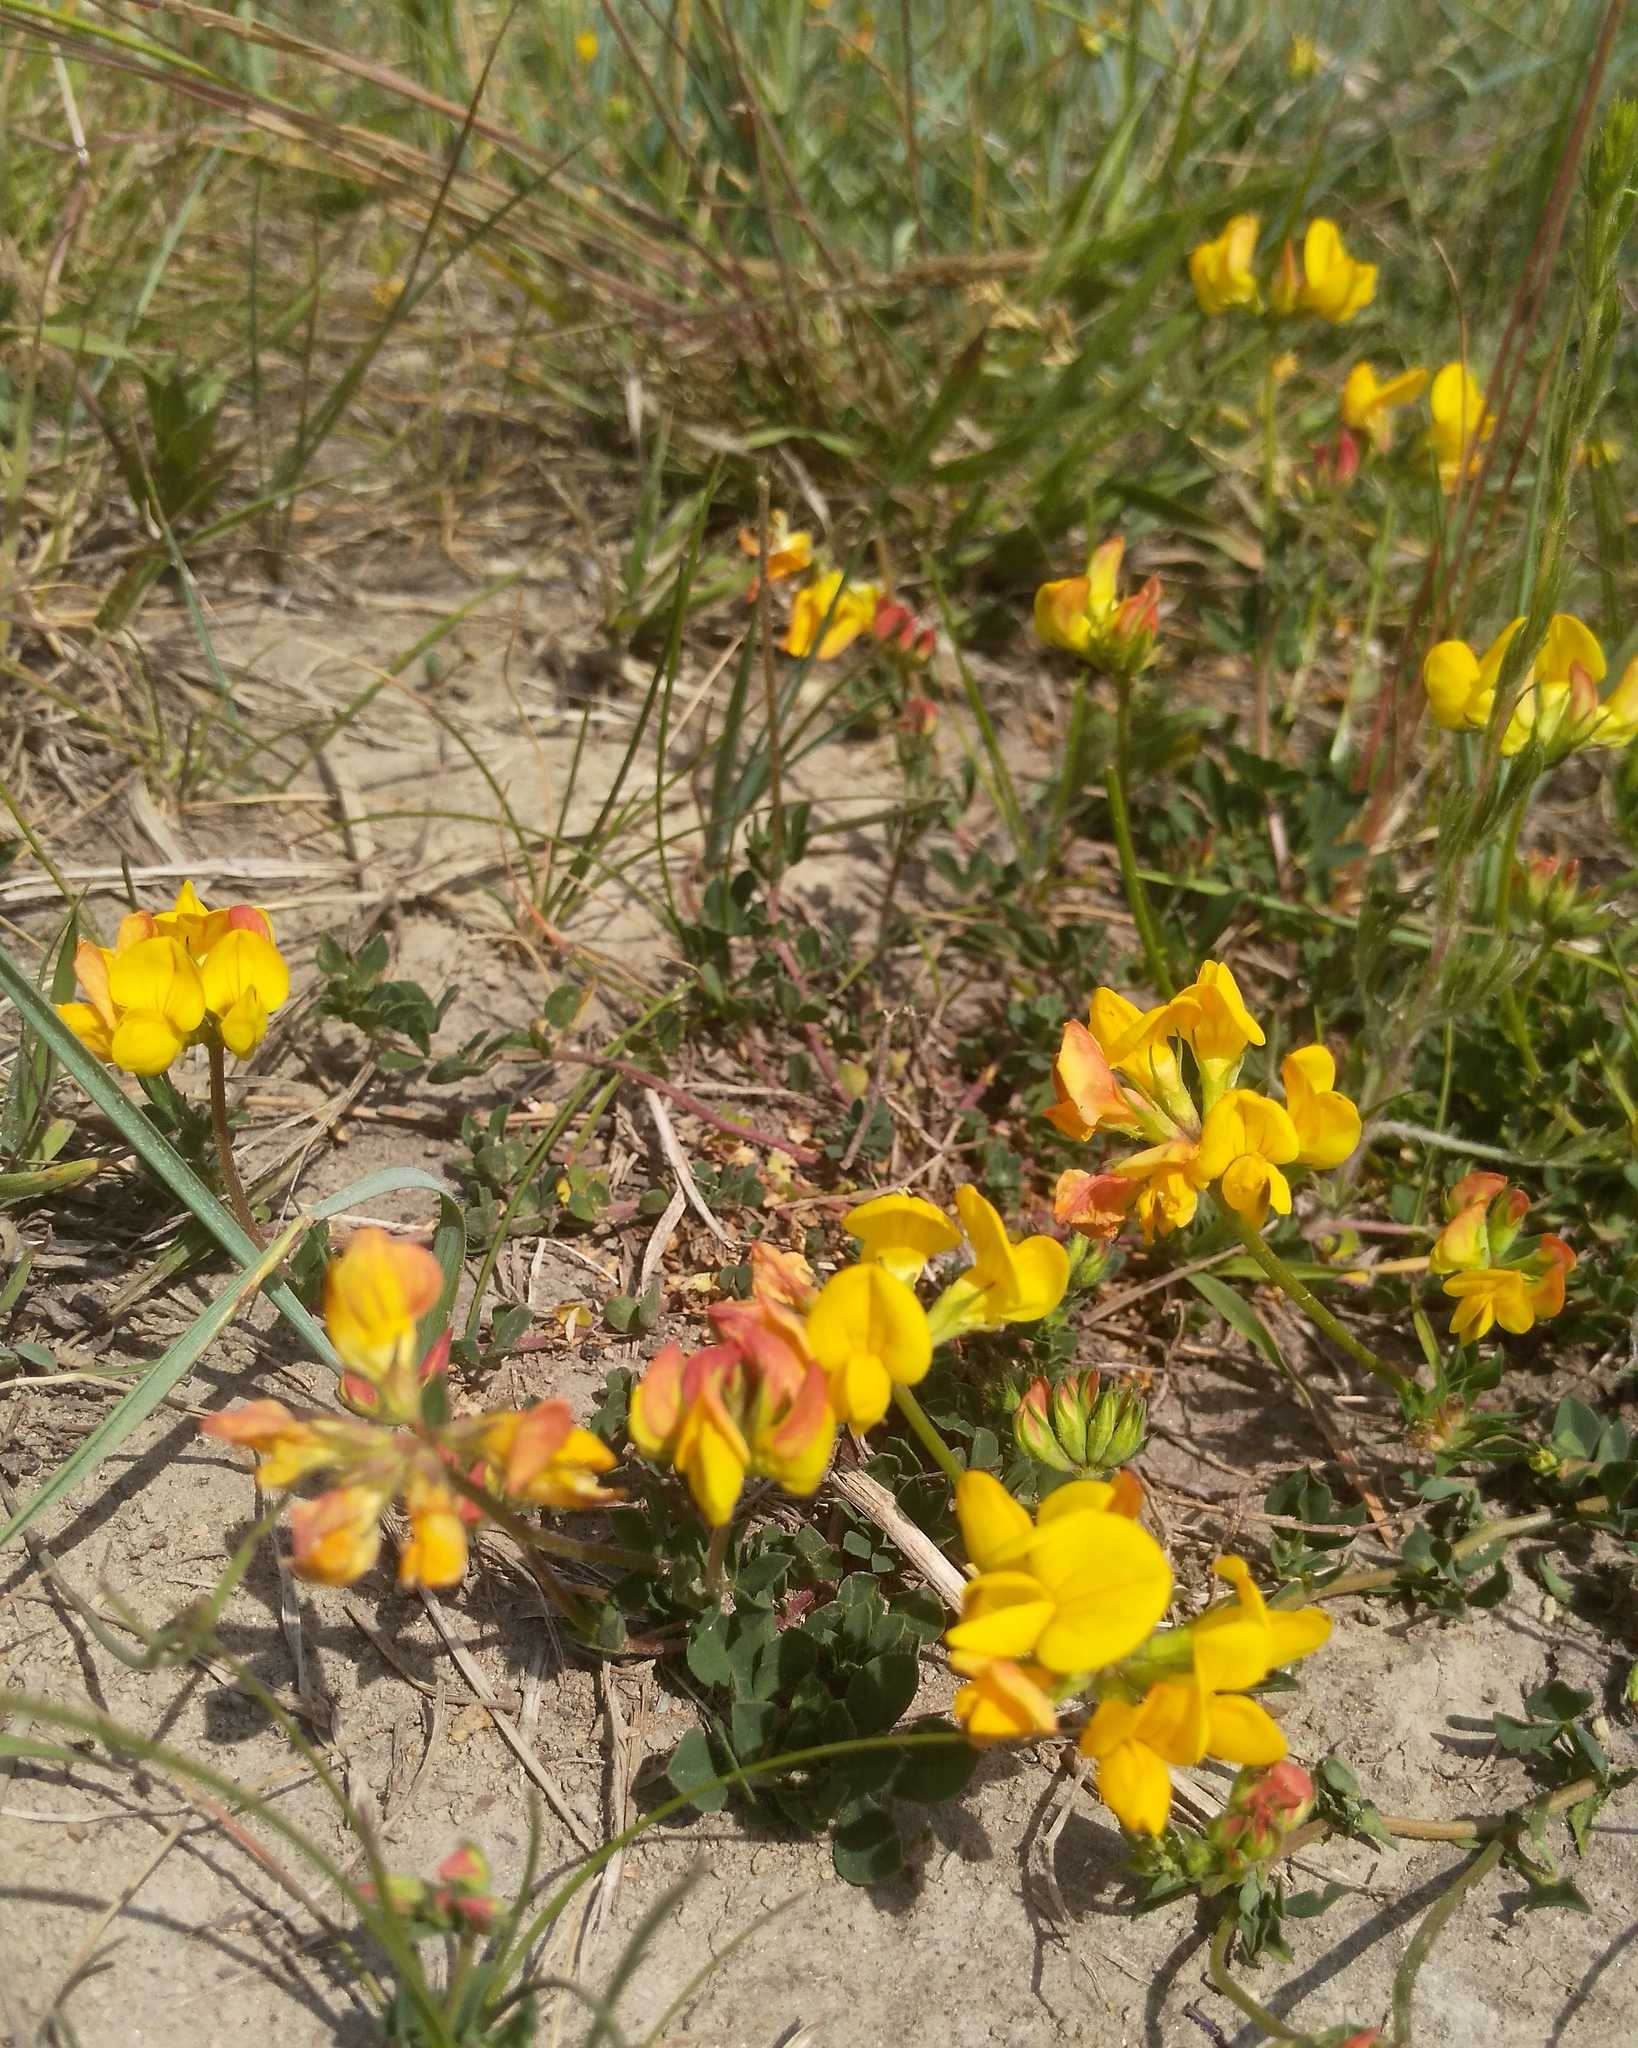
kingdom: Plantae
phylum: Tracheophyta
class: Magnoliopsida
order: Fabales
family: Fabaceae
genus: Lotus
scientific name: Lotus corniculatus
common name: Common bird's-foot-trefoil
